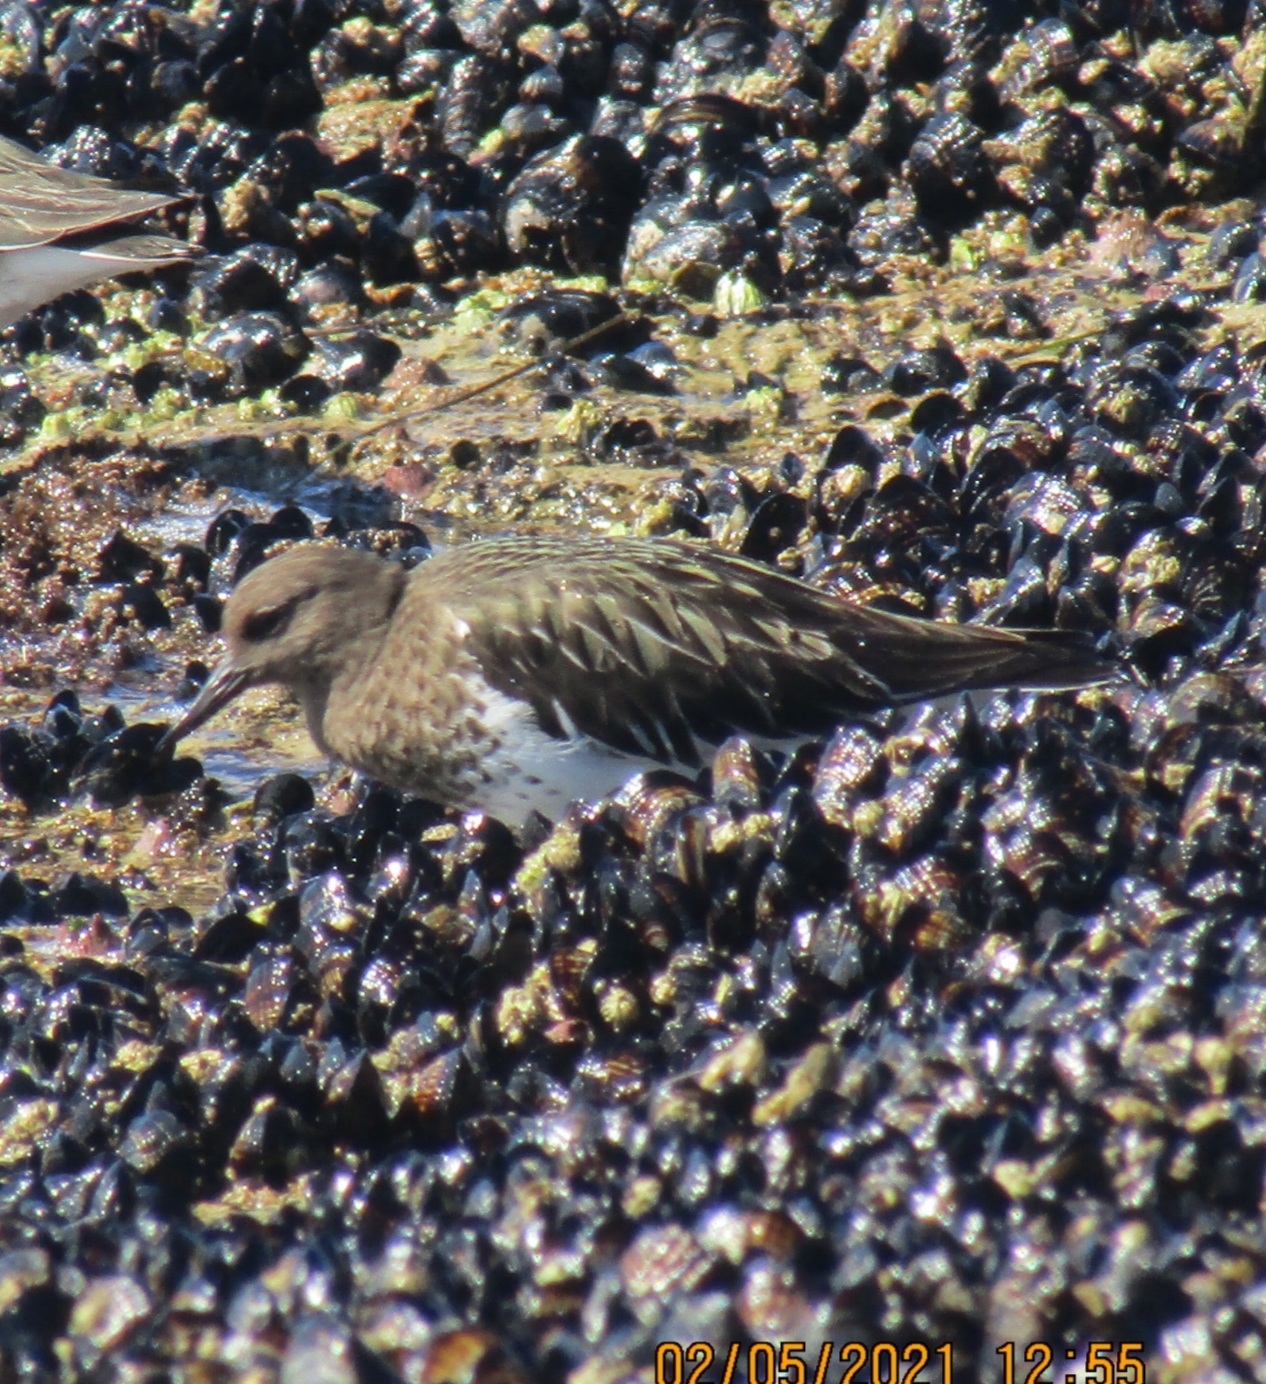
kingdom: Animalia
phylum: Chordata
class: Aves
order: Charadriiformes
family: Scolopacidae
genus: Arenaria
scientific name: Arenaria melanocephala
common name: Black turnstone
